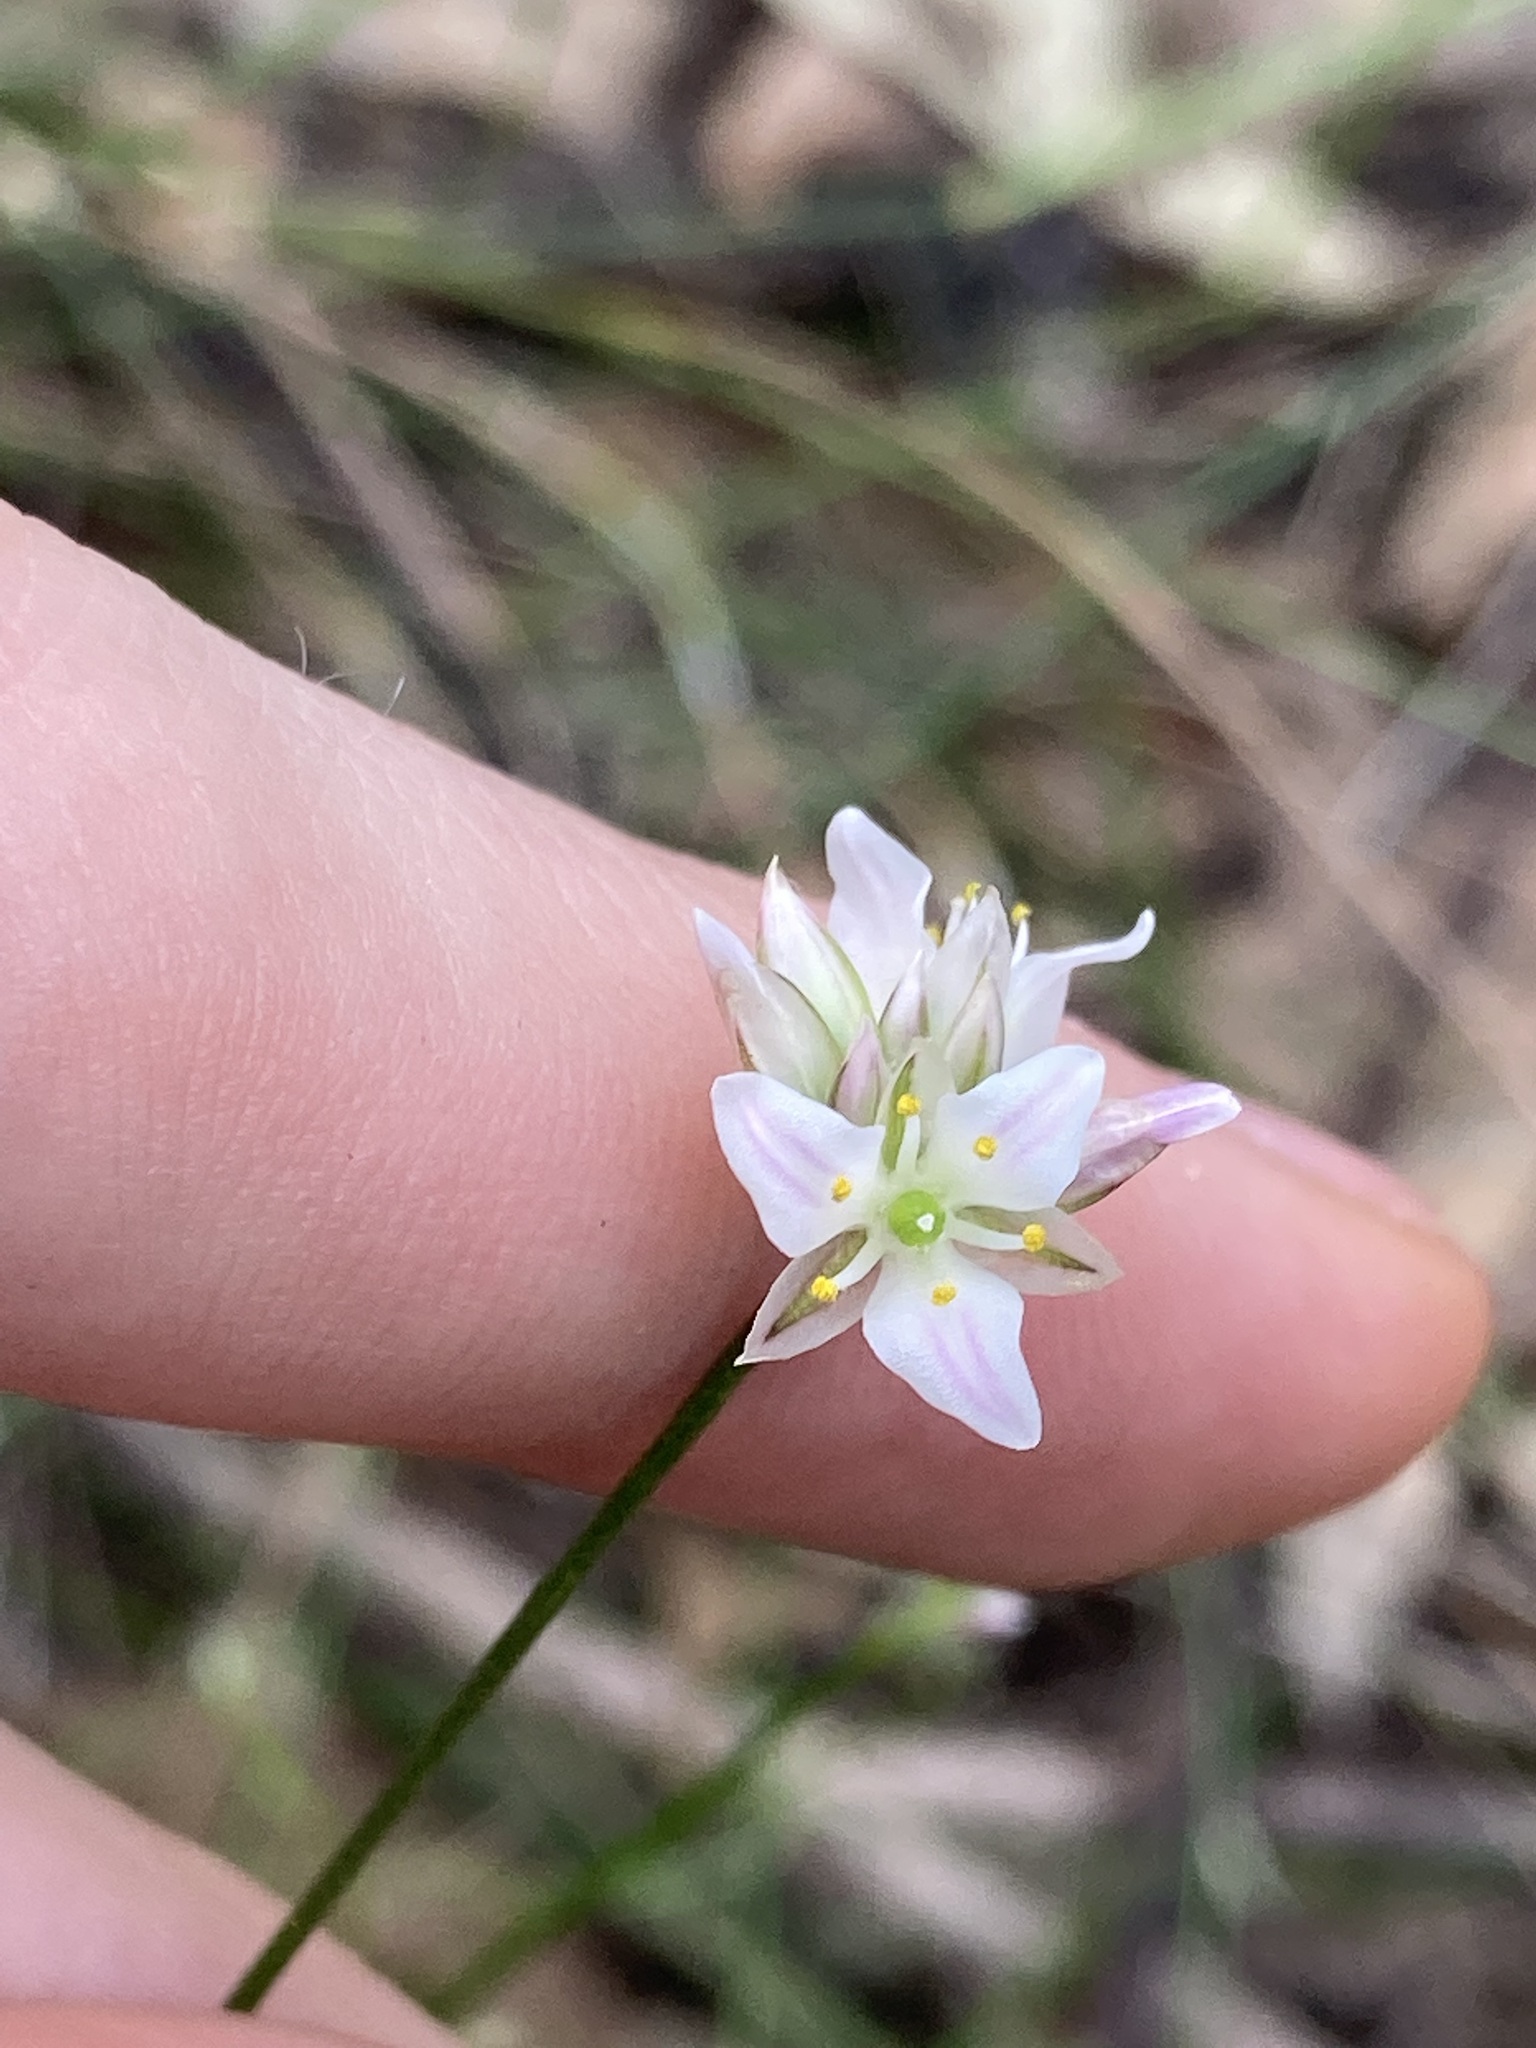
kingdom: Plantae
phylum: Tracheophyta
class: Liliopsida
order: Asparagales
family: Asparagaceae
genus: Laxmannia
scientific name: Laxmannia gracilis
